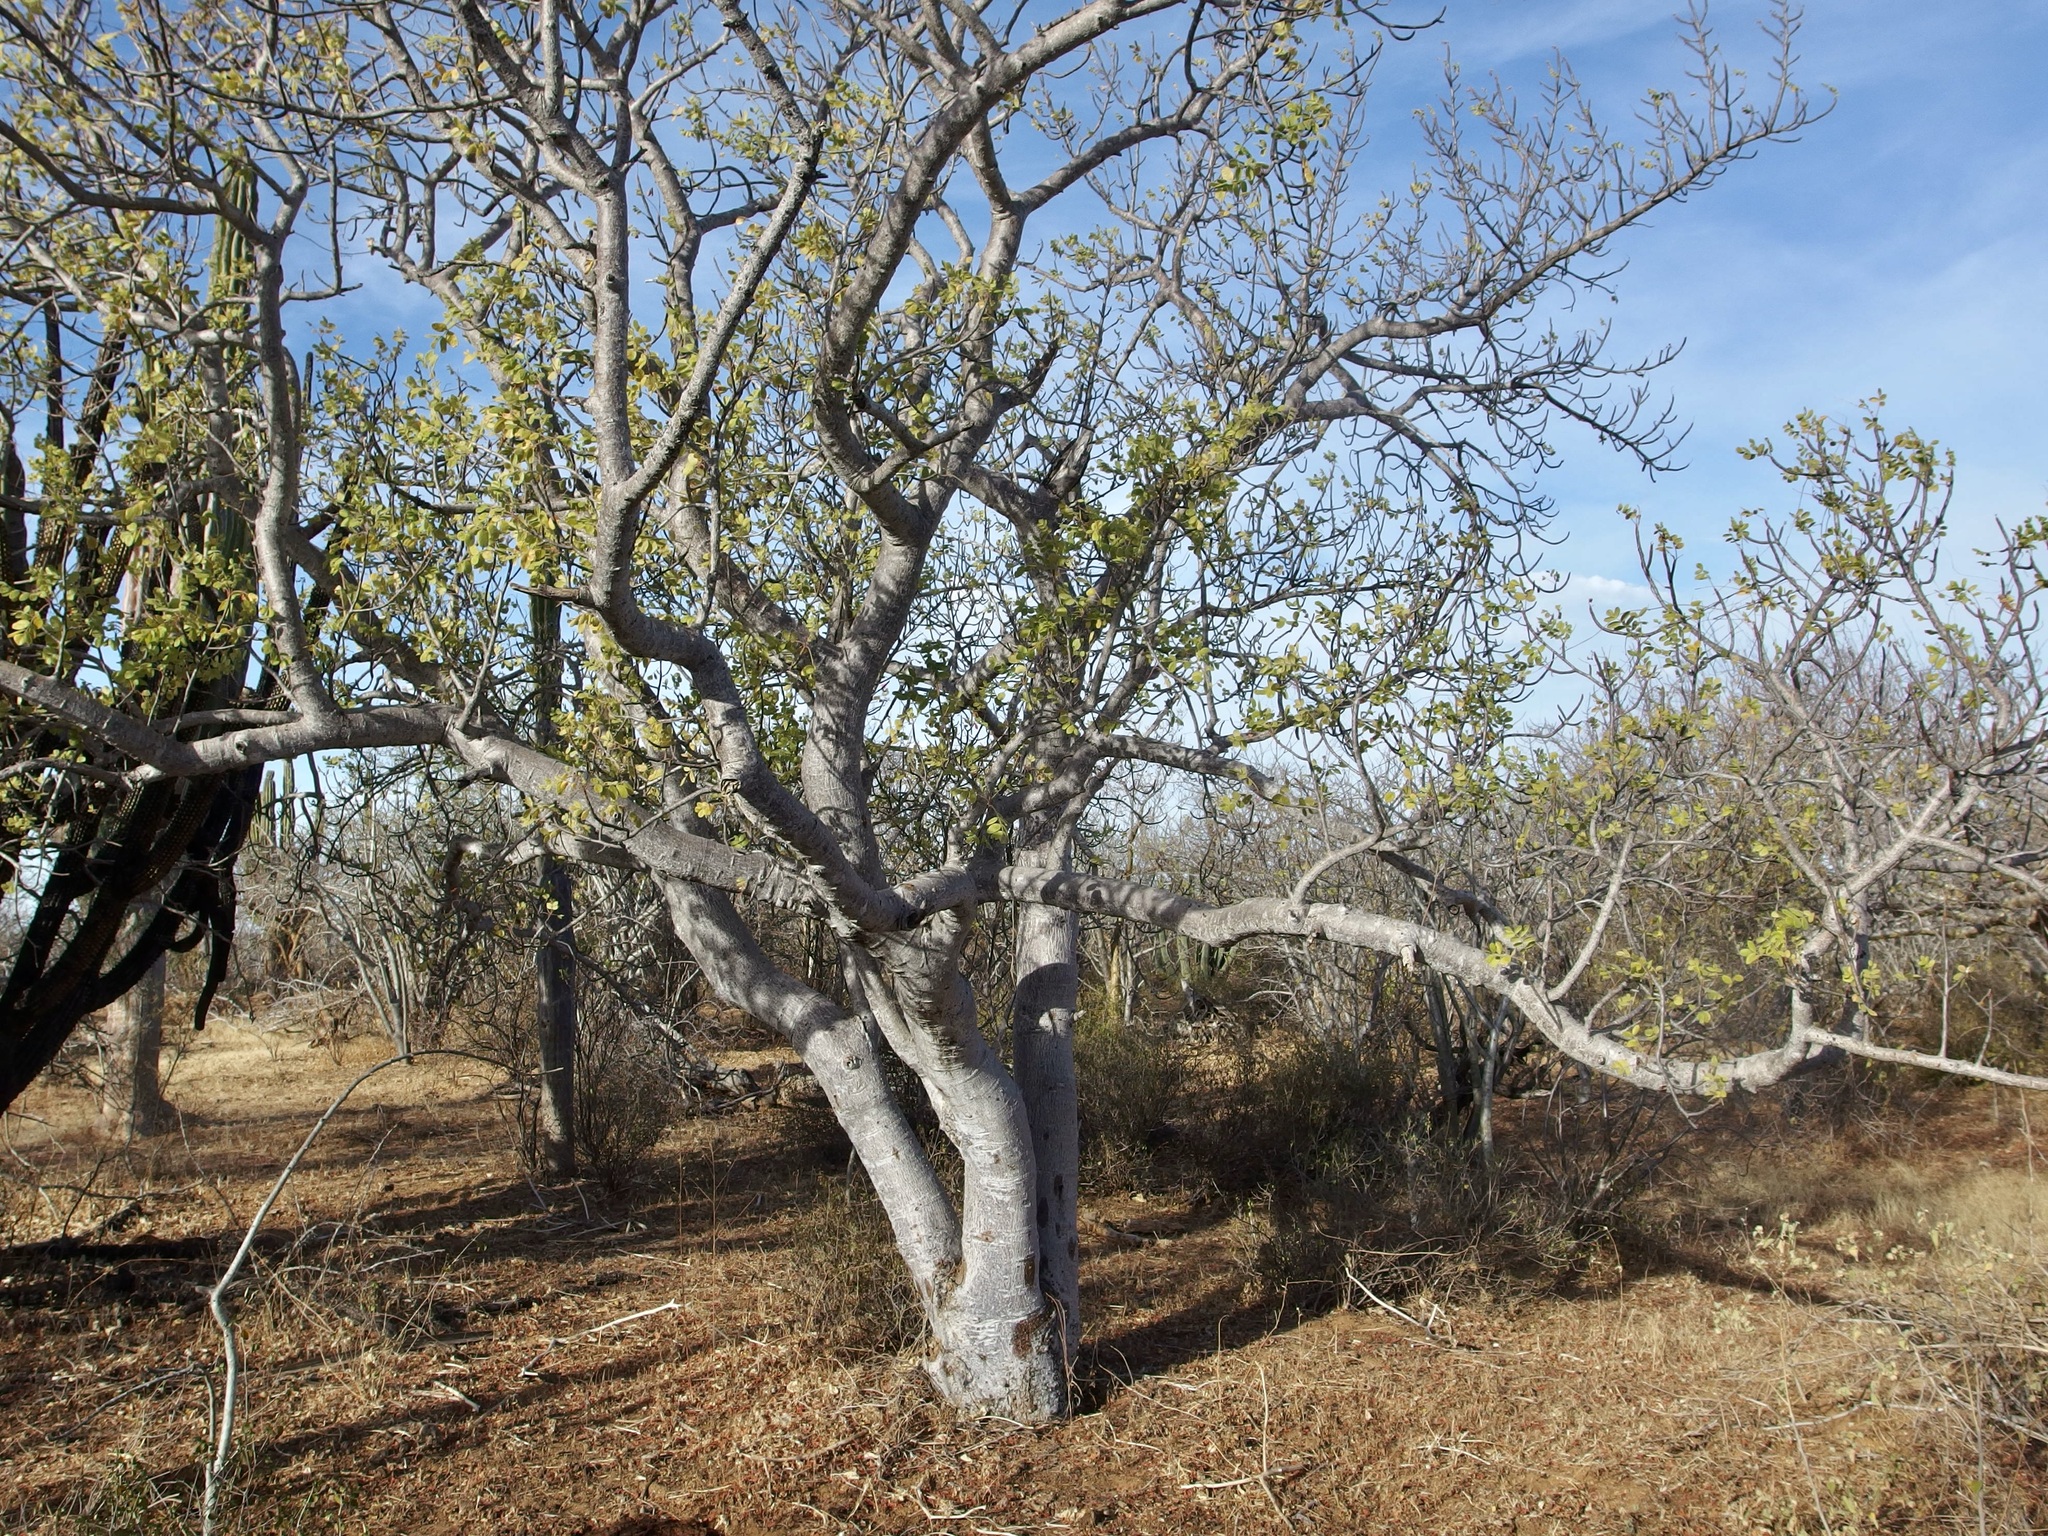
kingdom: Plantae
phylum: Tracheophyta
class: Magnoliopsida
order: Sapindales
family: Anacardiaceae
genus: Cyrtocarpa
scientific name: Cyrtocarpa edulis
